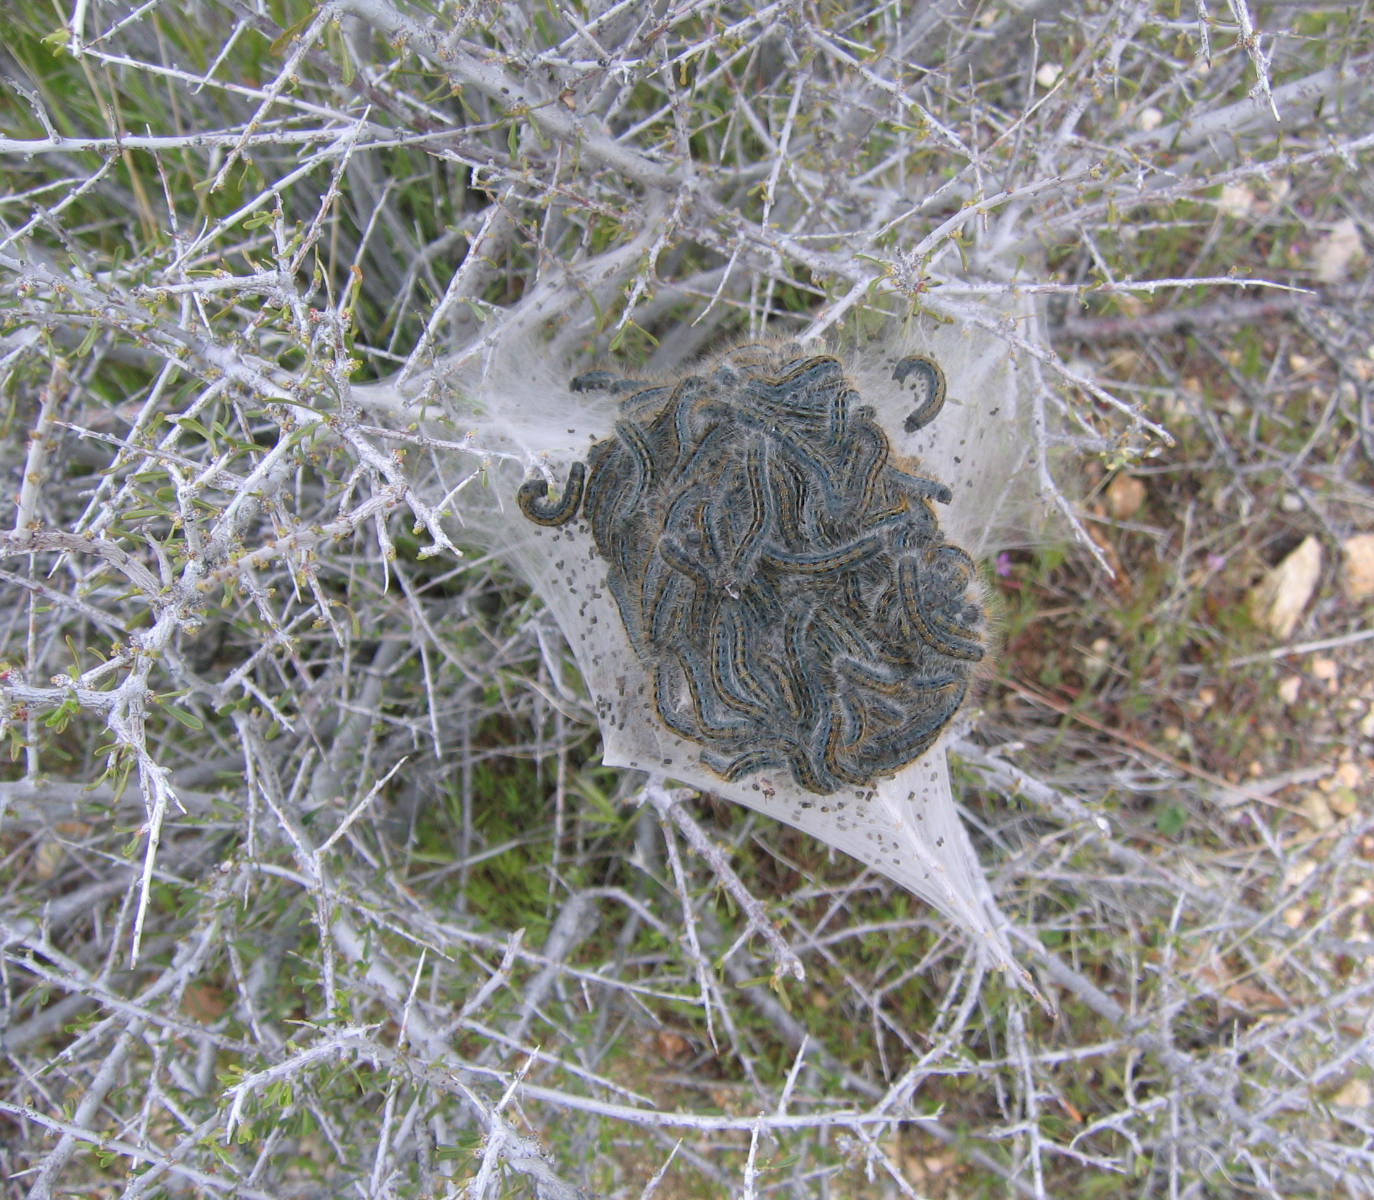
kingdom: Animalia
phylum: Arthropoda
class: Insecta
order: Lepidoptera
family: Lasiocampidae
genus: Malacosoma
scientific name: Malacosoma californica
